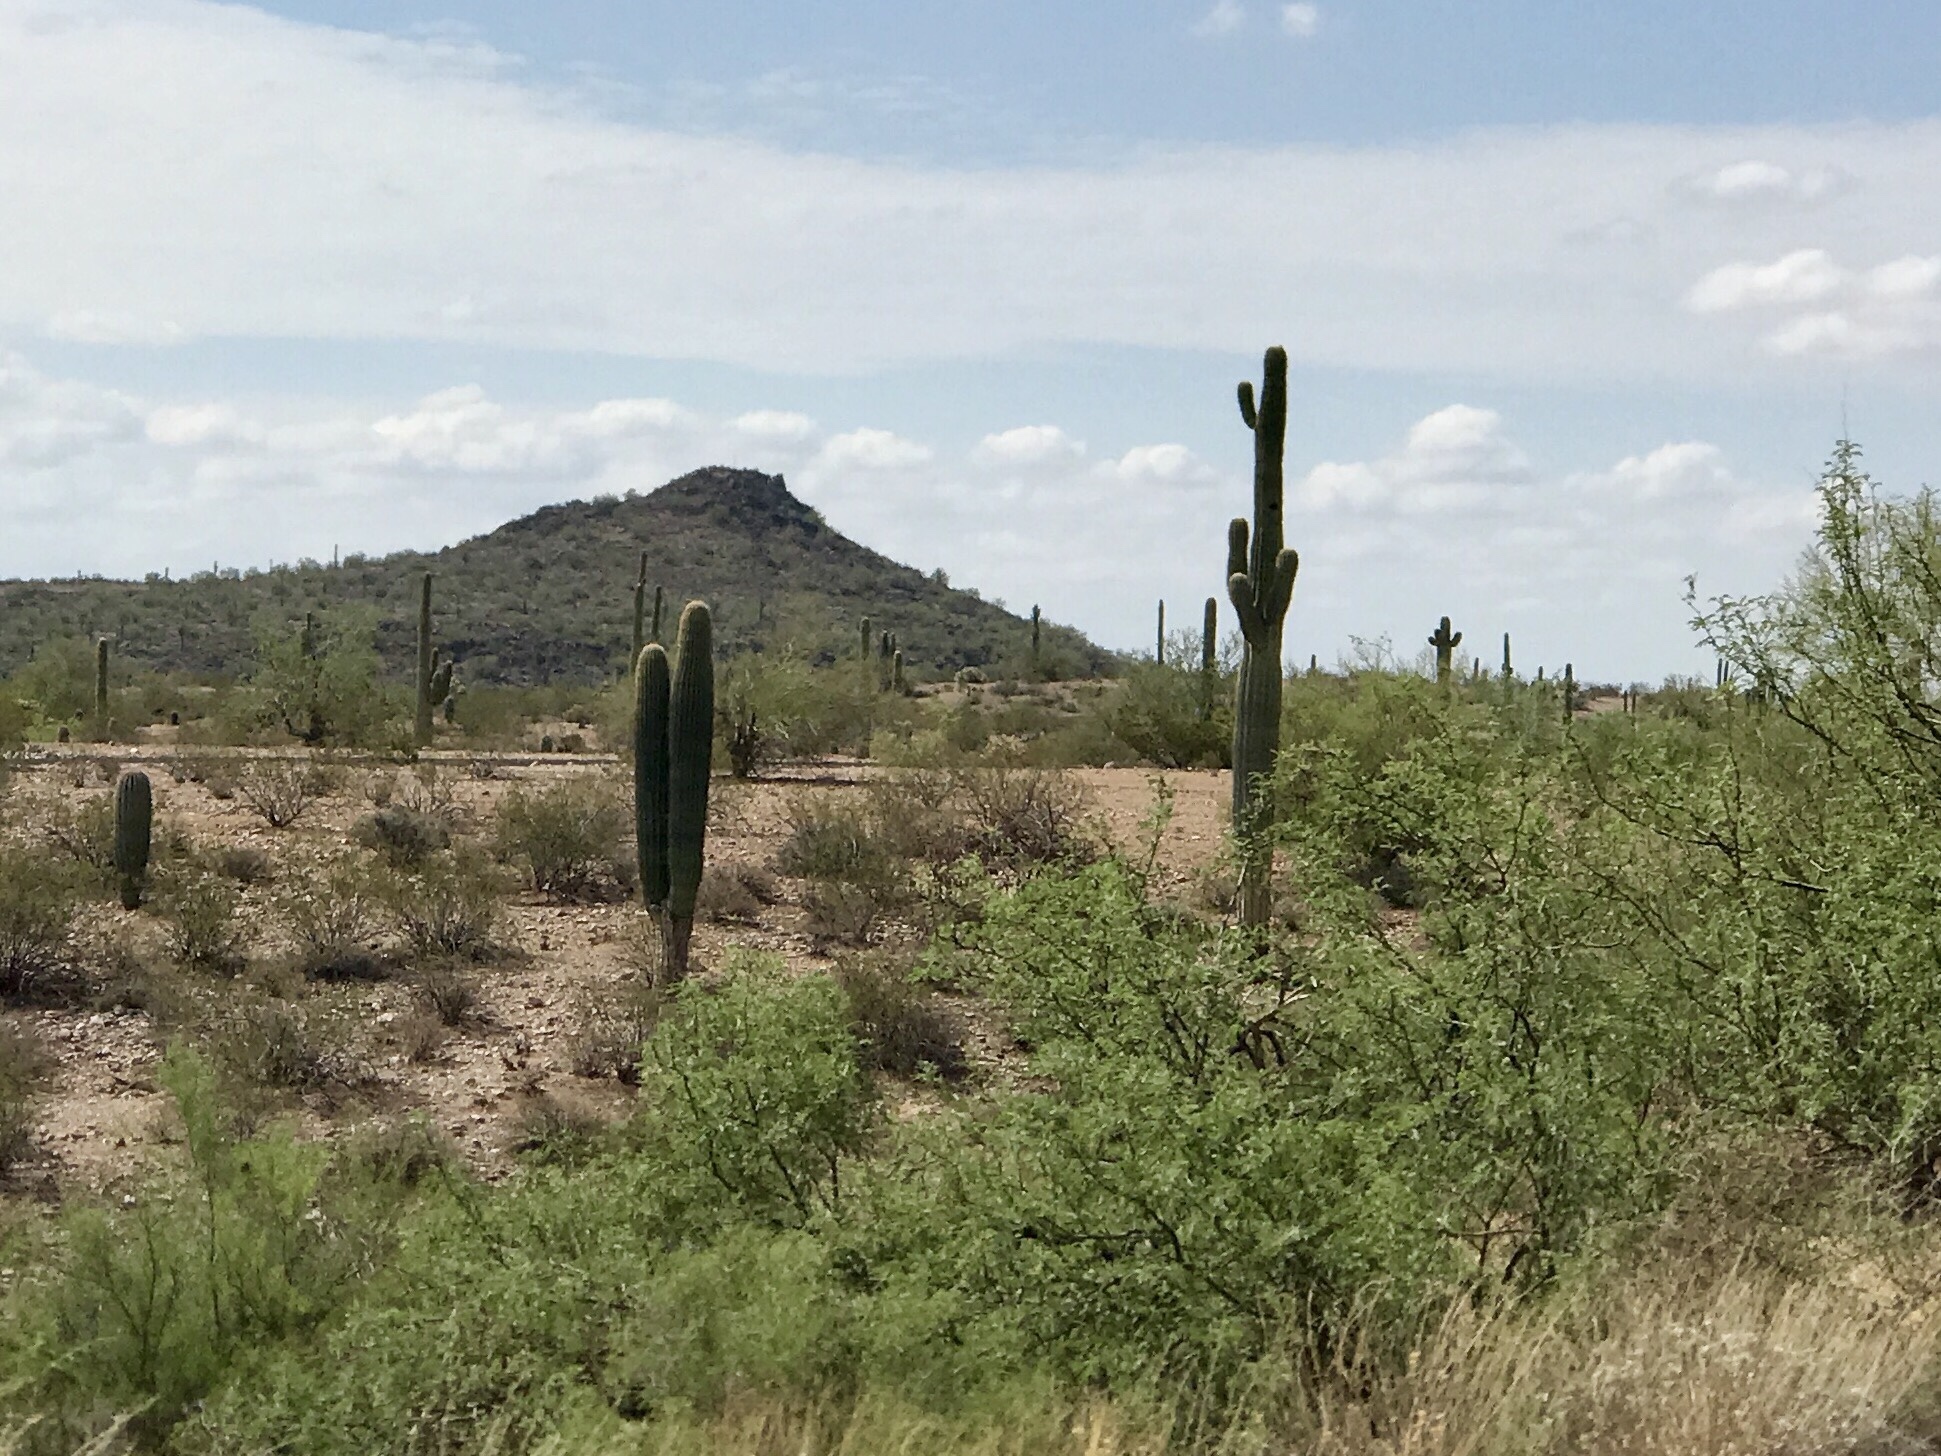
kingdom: Plantae
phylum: Tracheophyta
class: Magnoliopsida
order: Caryophyllales
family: Cactaceae
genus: Carnegiea
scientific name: Carnegiea gigantea
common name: Saguaro
